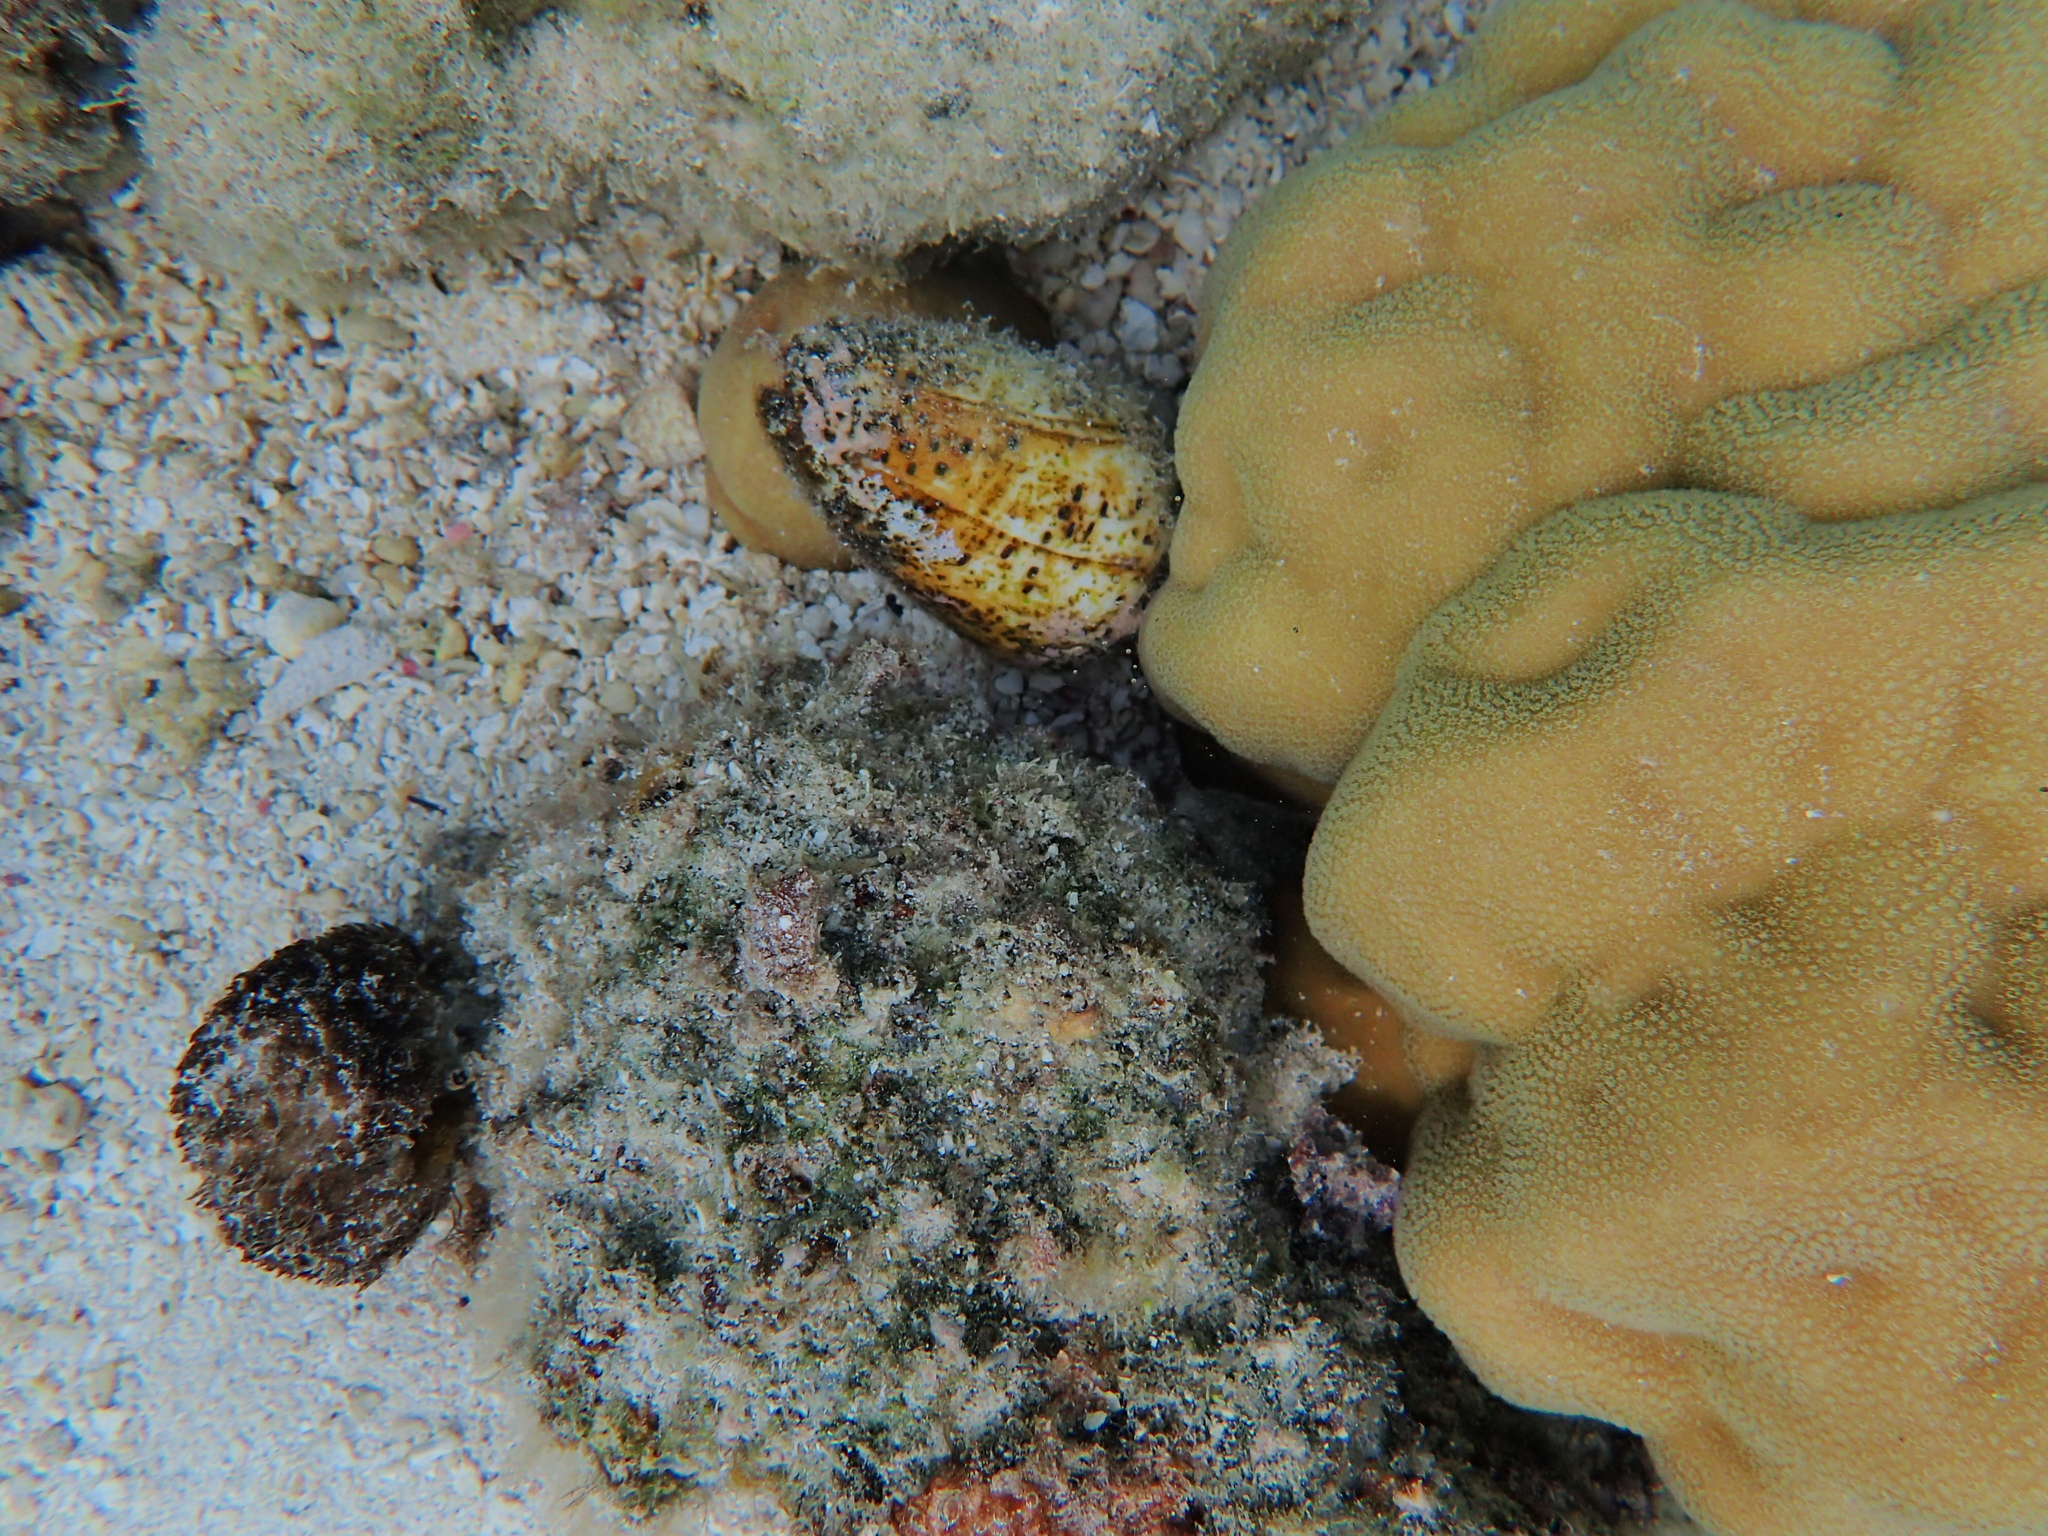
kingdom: Animalia
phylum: Mollusca
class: Gastropoda
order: Neogastropoda
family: Conidae
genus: Conus
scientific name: Conus pulicarius
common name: Flea-bite cone
